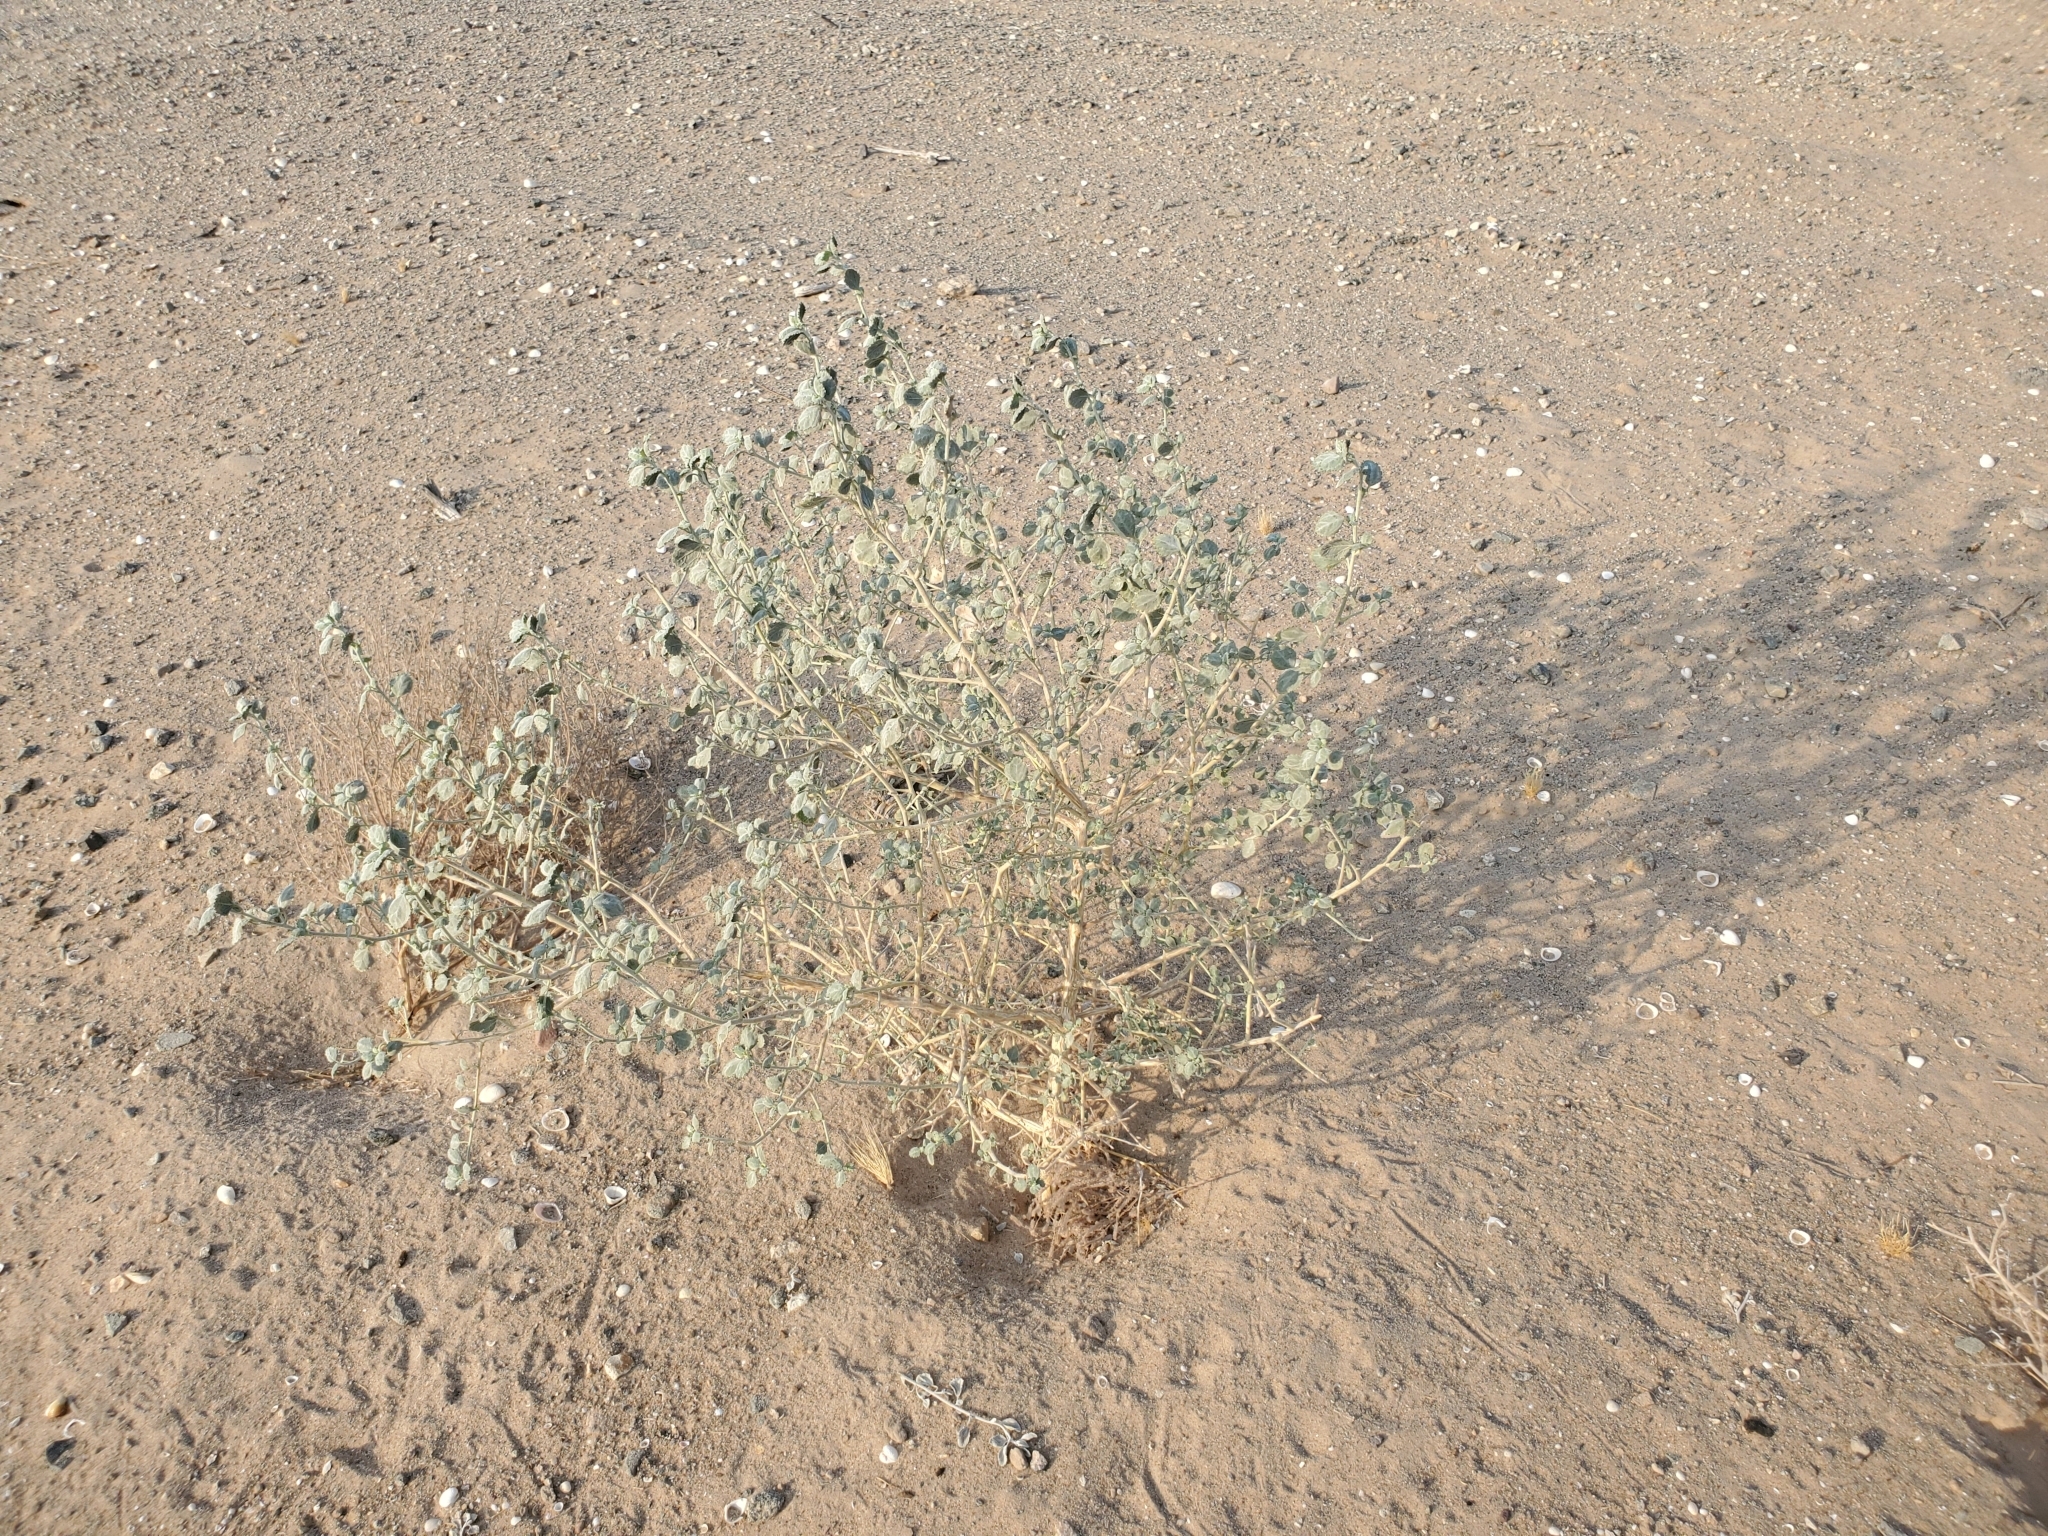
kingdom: Plantae
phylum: Tracheophyta
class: Magnoliopsida
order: Asterales
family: Asteraceae
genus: Dicoria
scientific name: Dicoria canescens
